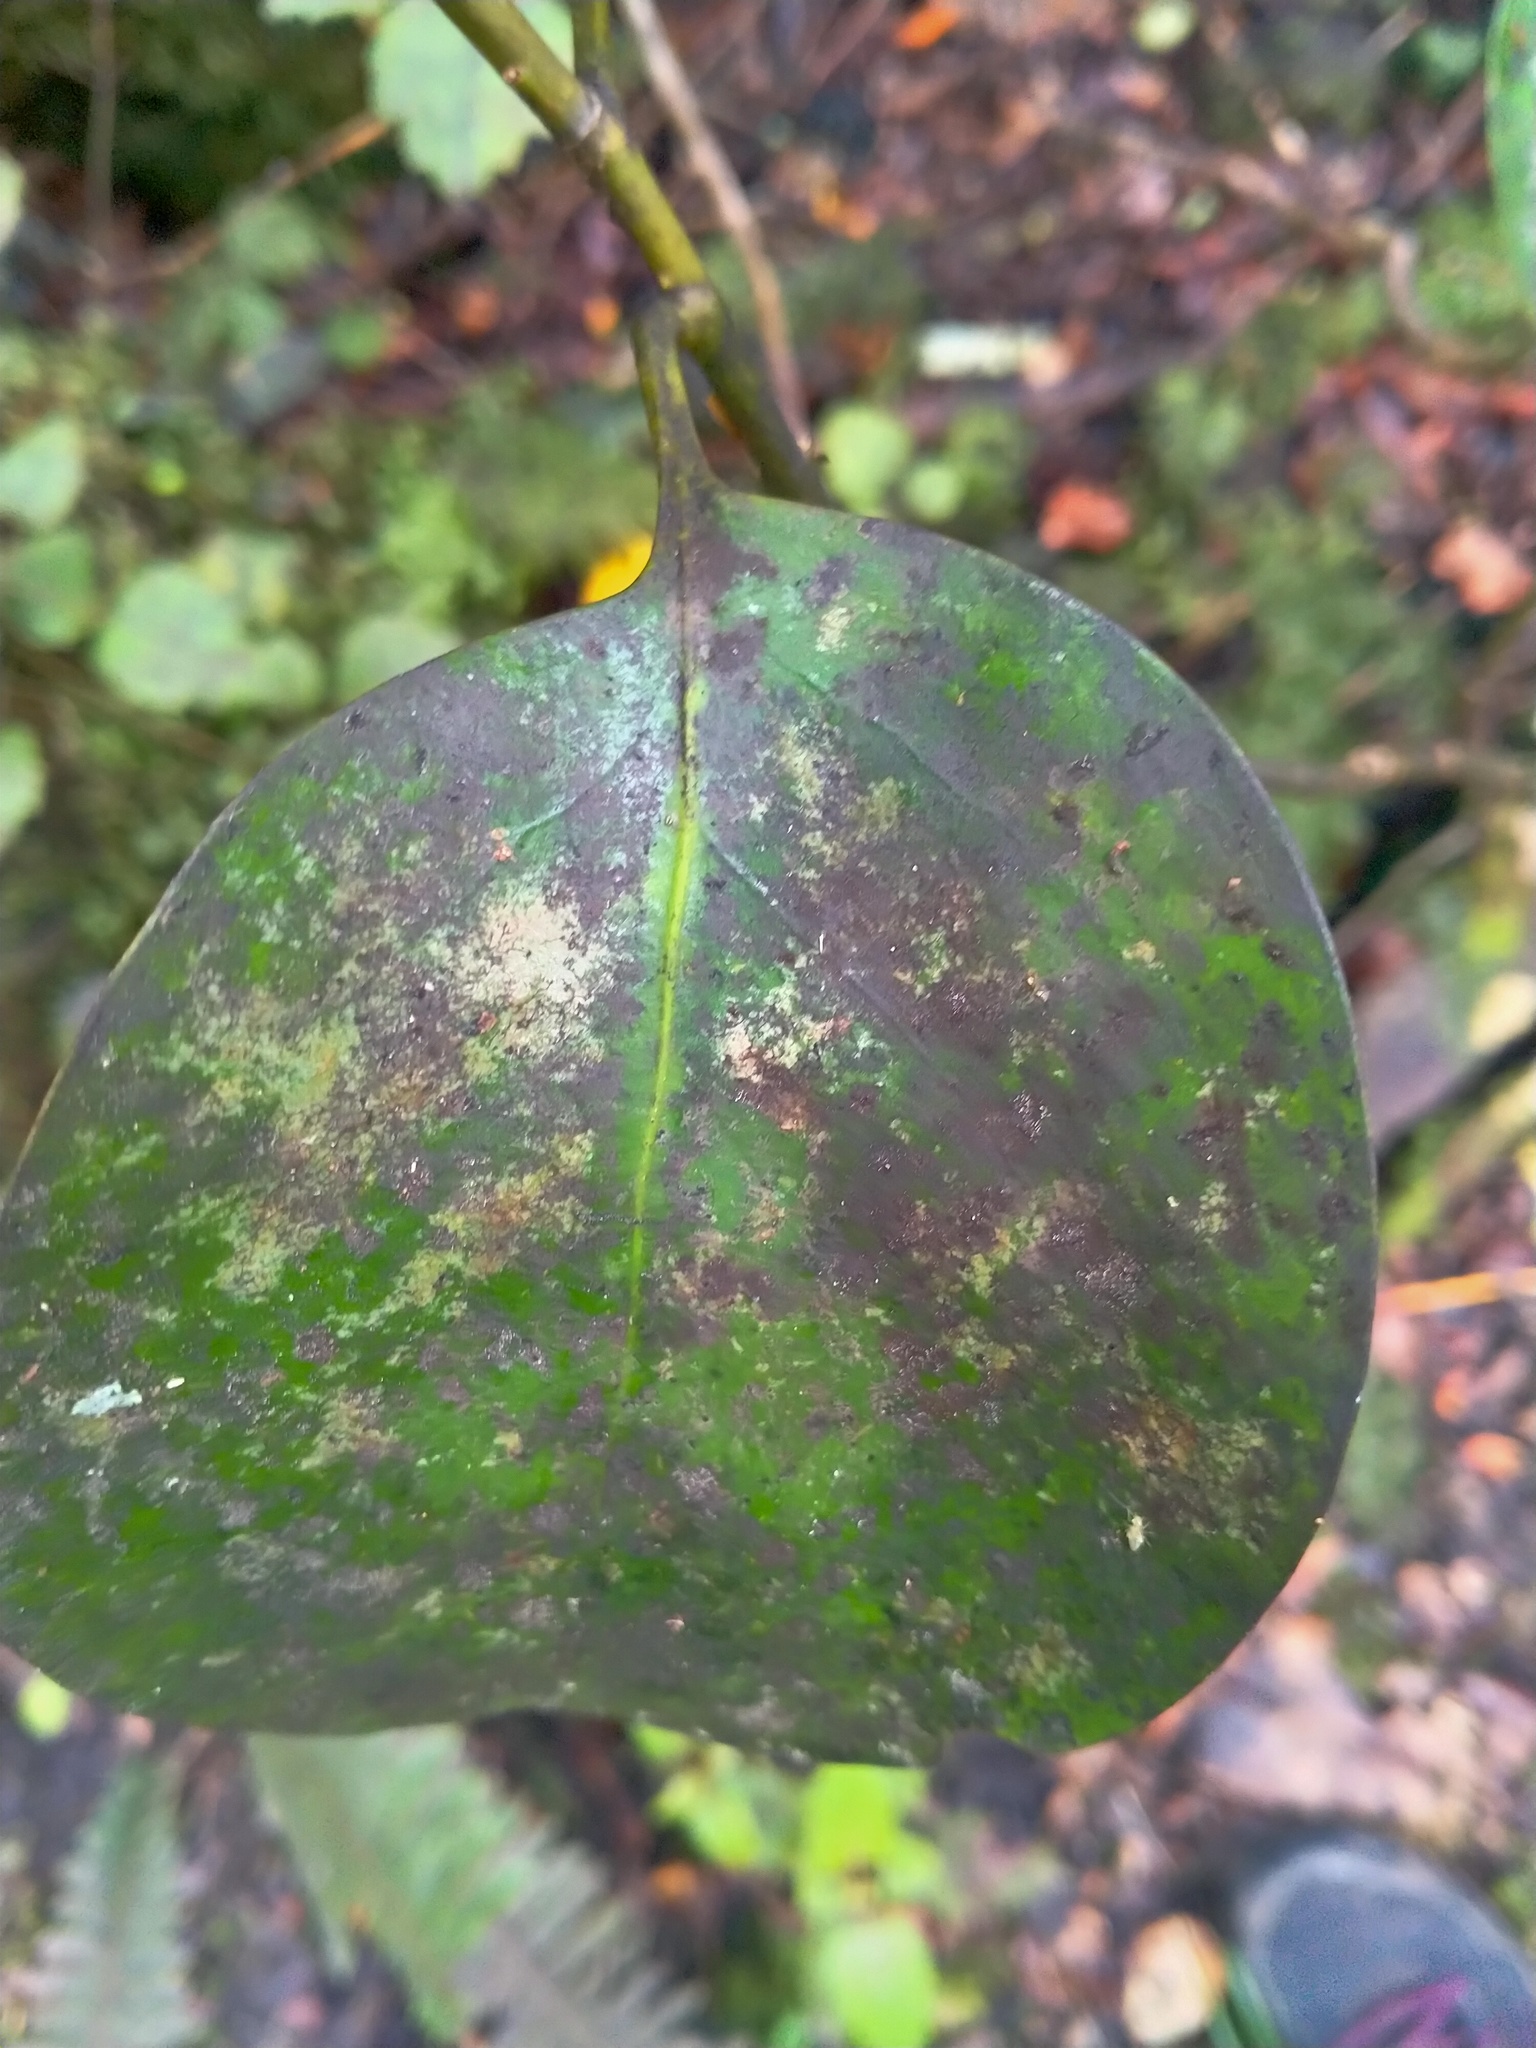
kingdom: Plantae
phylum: Tracheophyta
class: Magnoliopsida
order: Apiales
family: Griseliniaceae
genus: Griselinia
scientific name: Griselinia littoralis
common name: New zealand broadleaf
